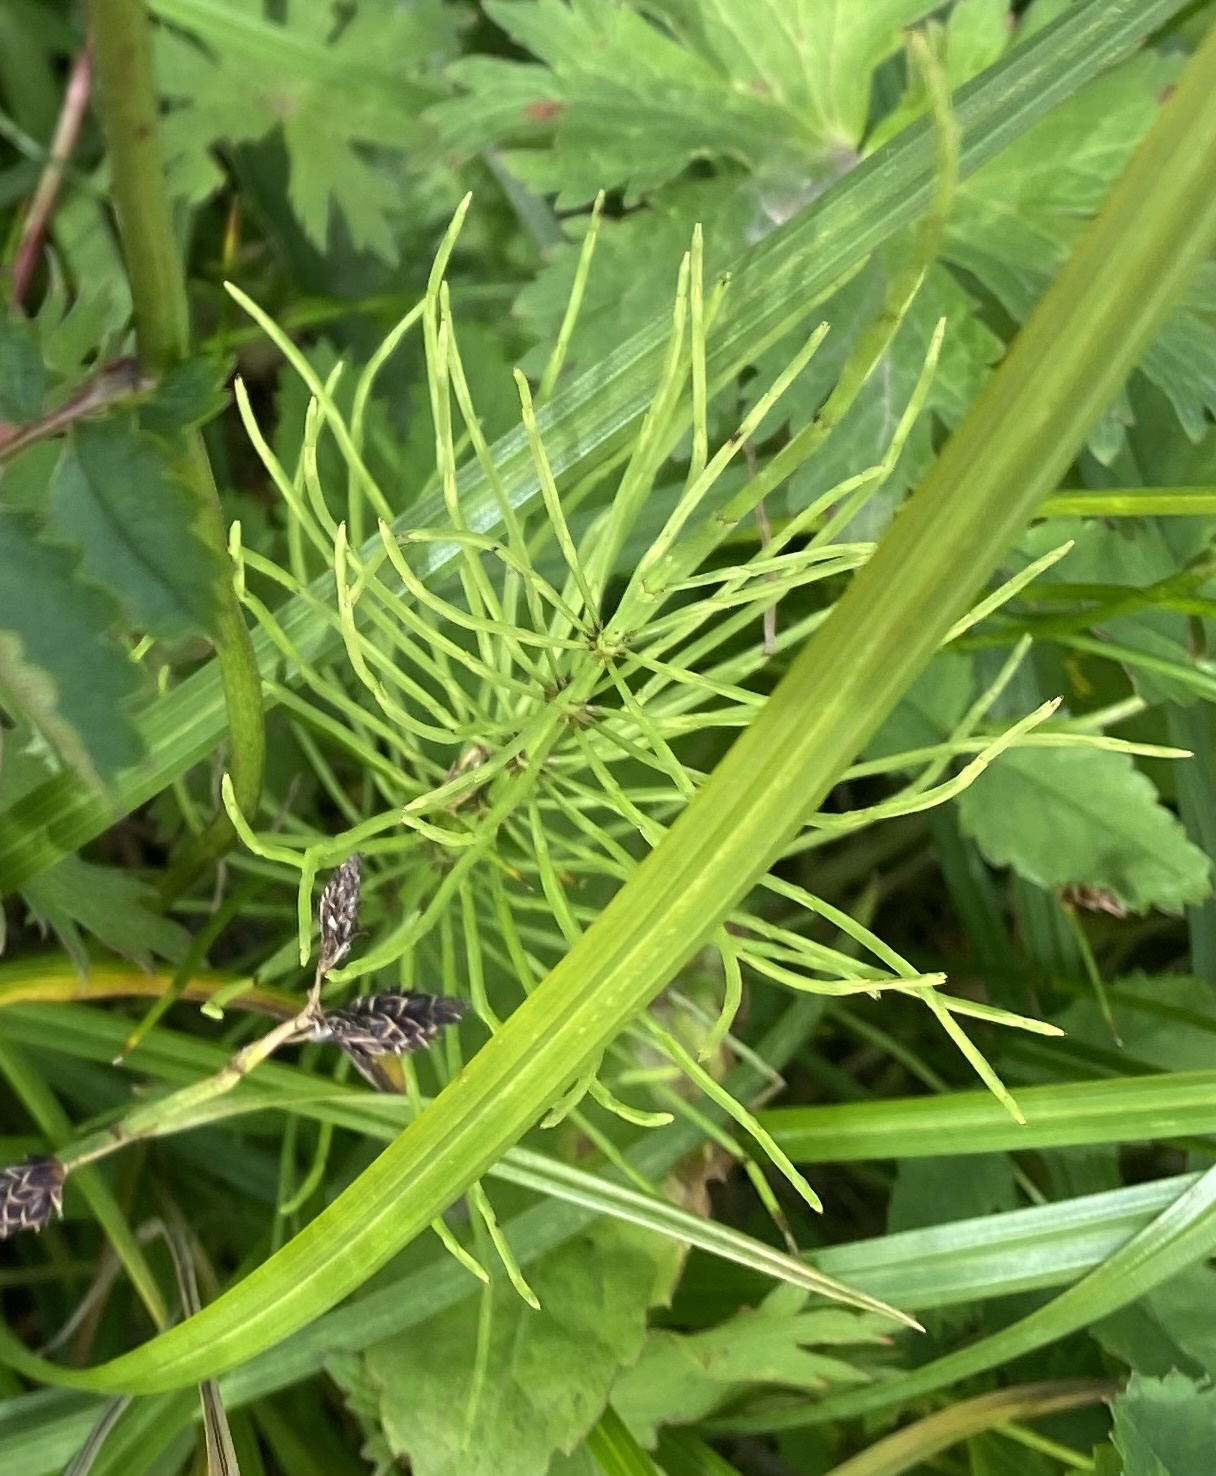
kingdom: Plantae
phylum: Tracheophyta
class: Polypodiopsida
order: Equisetales
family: Equisetaceae
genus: Equisetum
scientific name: Equisetum arvense
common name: Field horsetail
